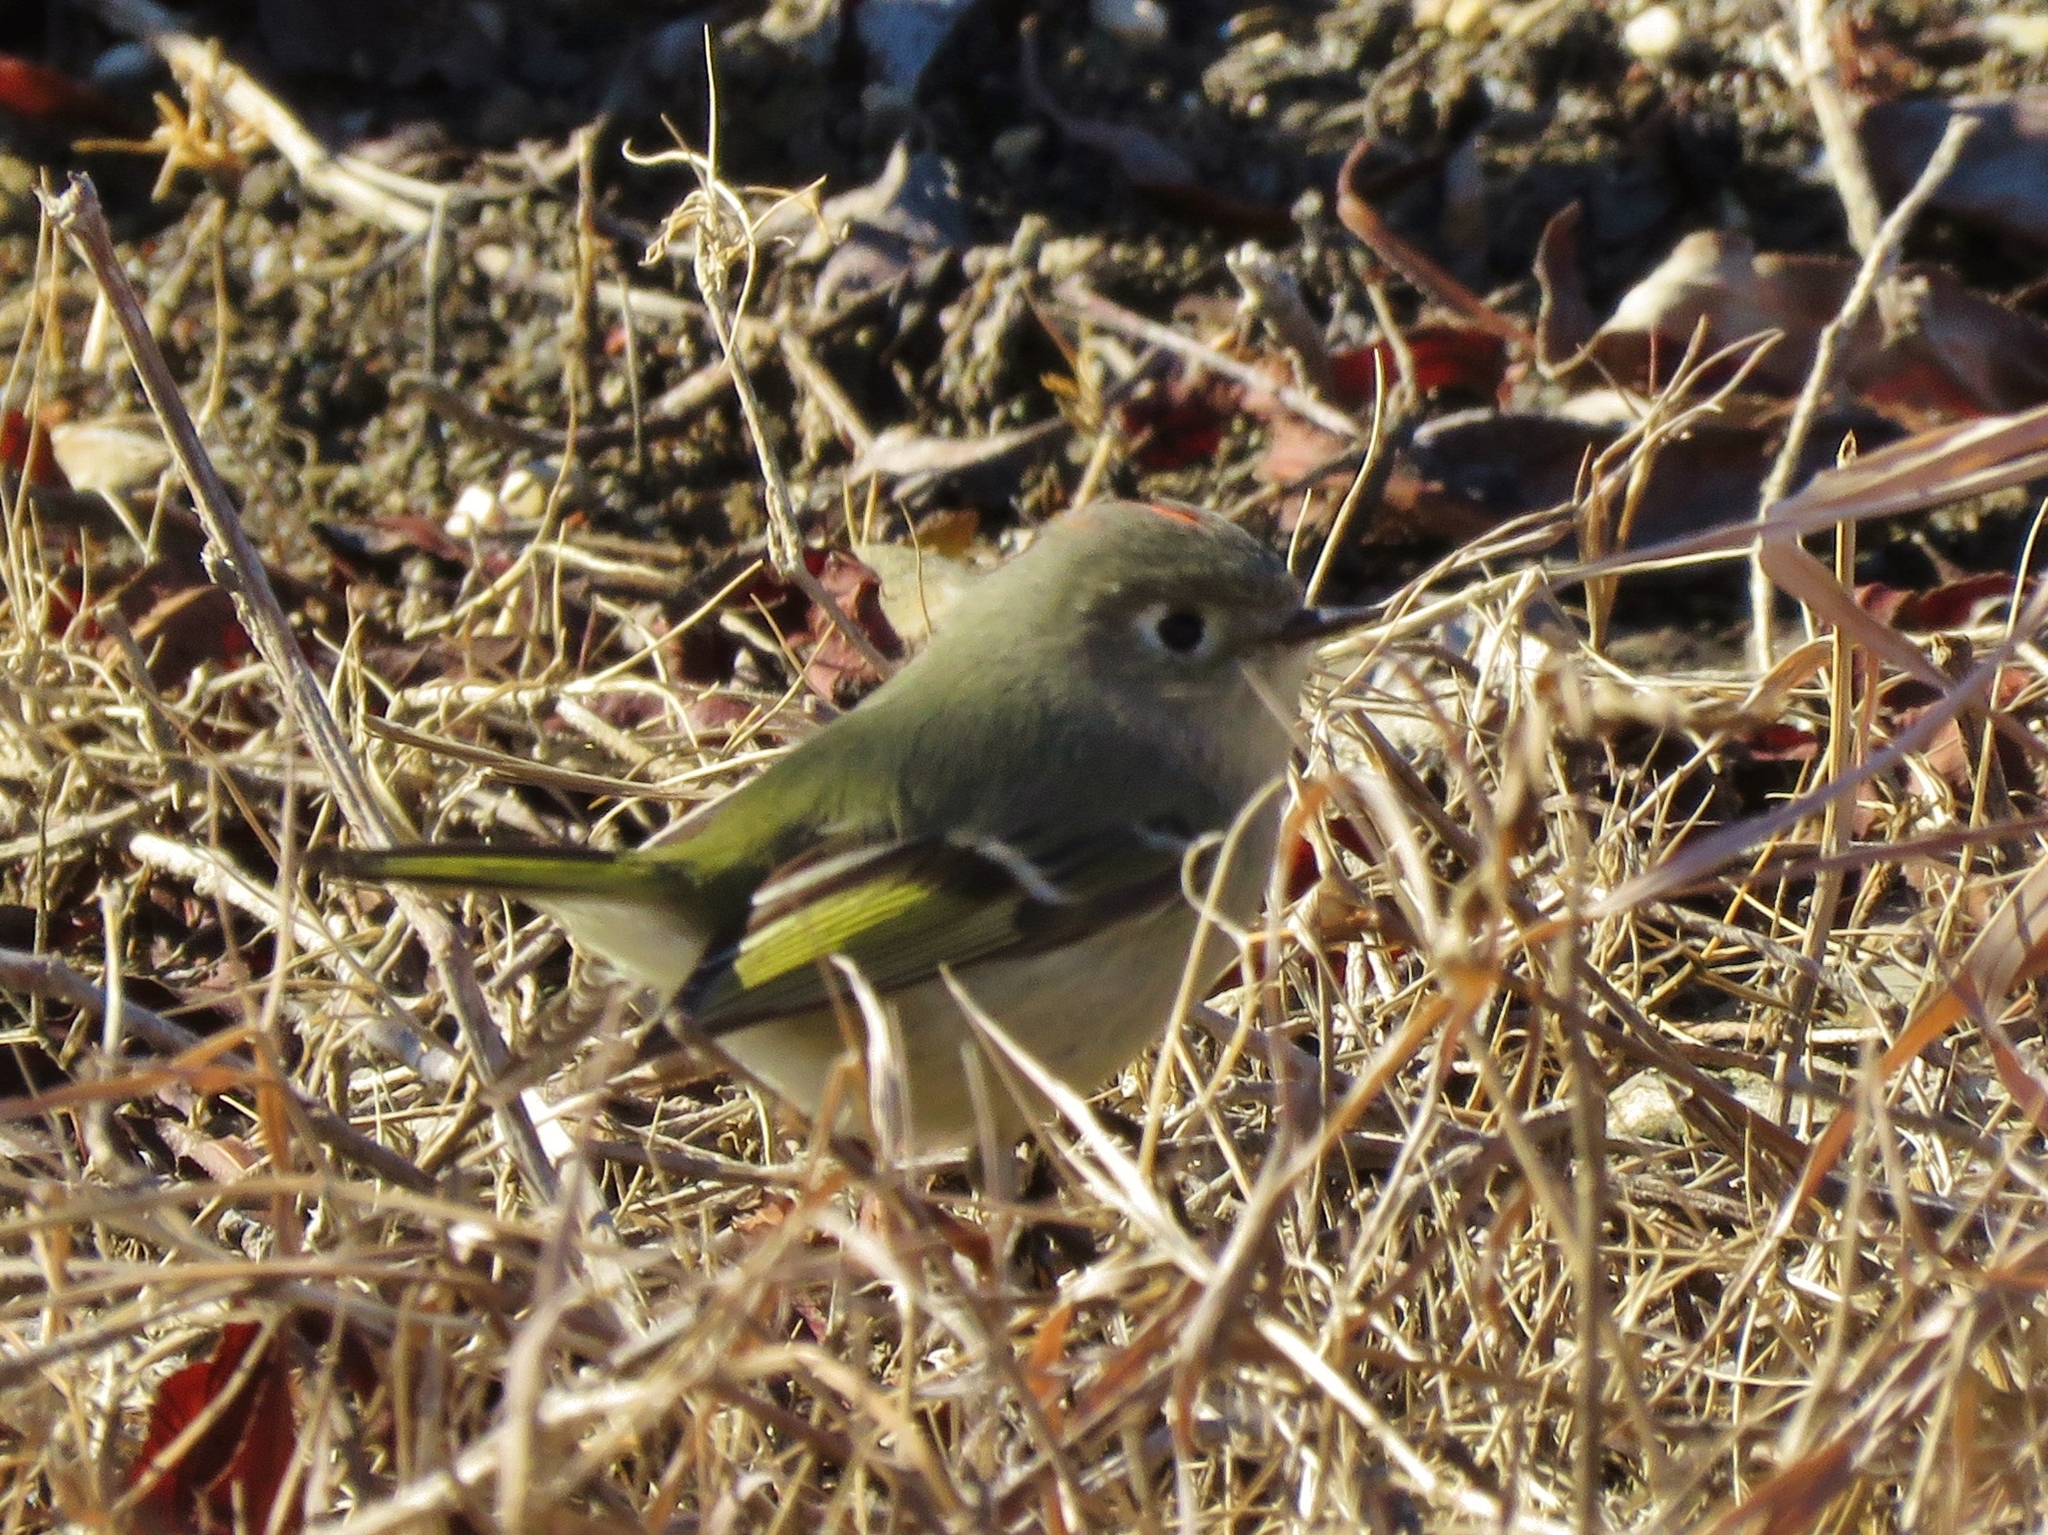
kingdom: Animalia
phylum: Chordata
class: Aves
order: Passeriformes
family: Regulidae
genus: Regulus
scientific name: Regulus calendula
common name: Ruby-crowned kinglet
